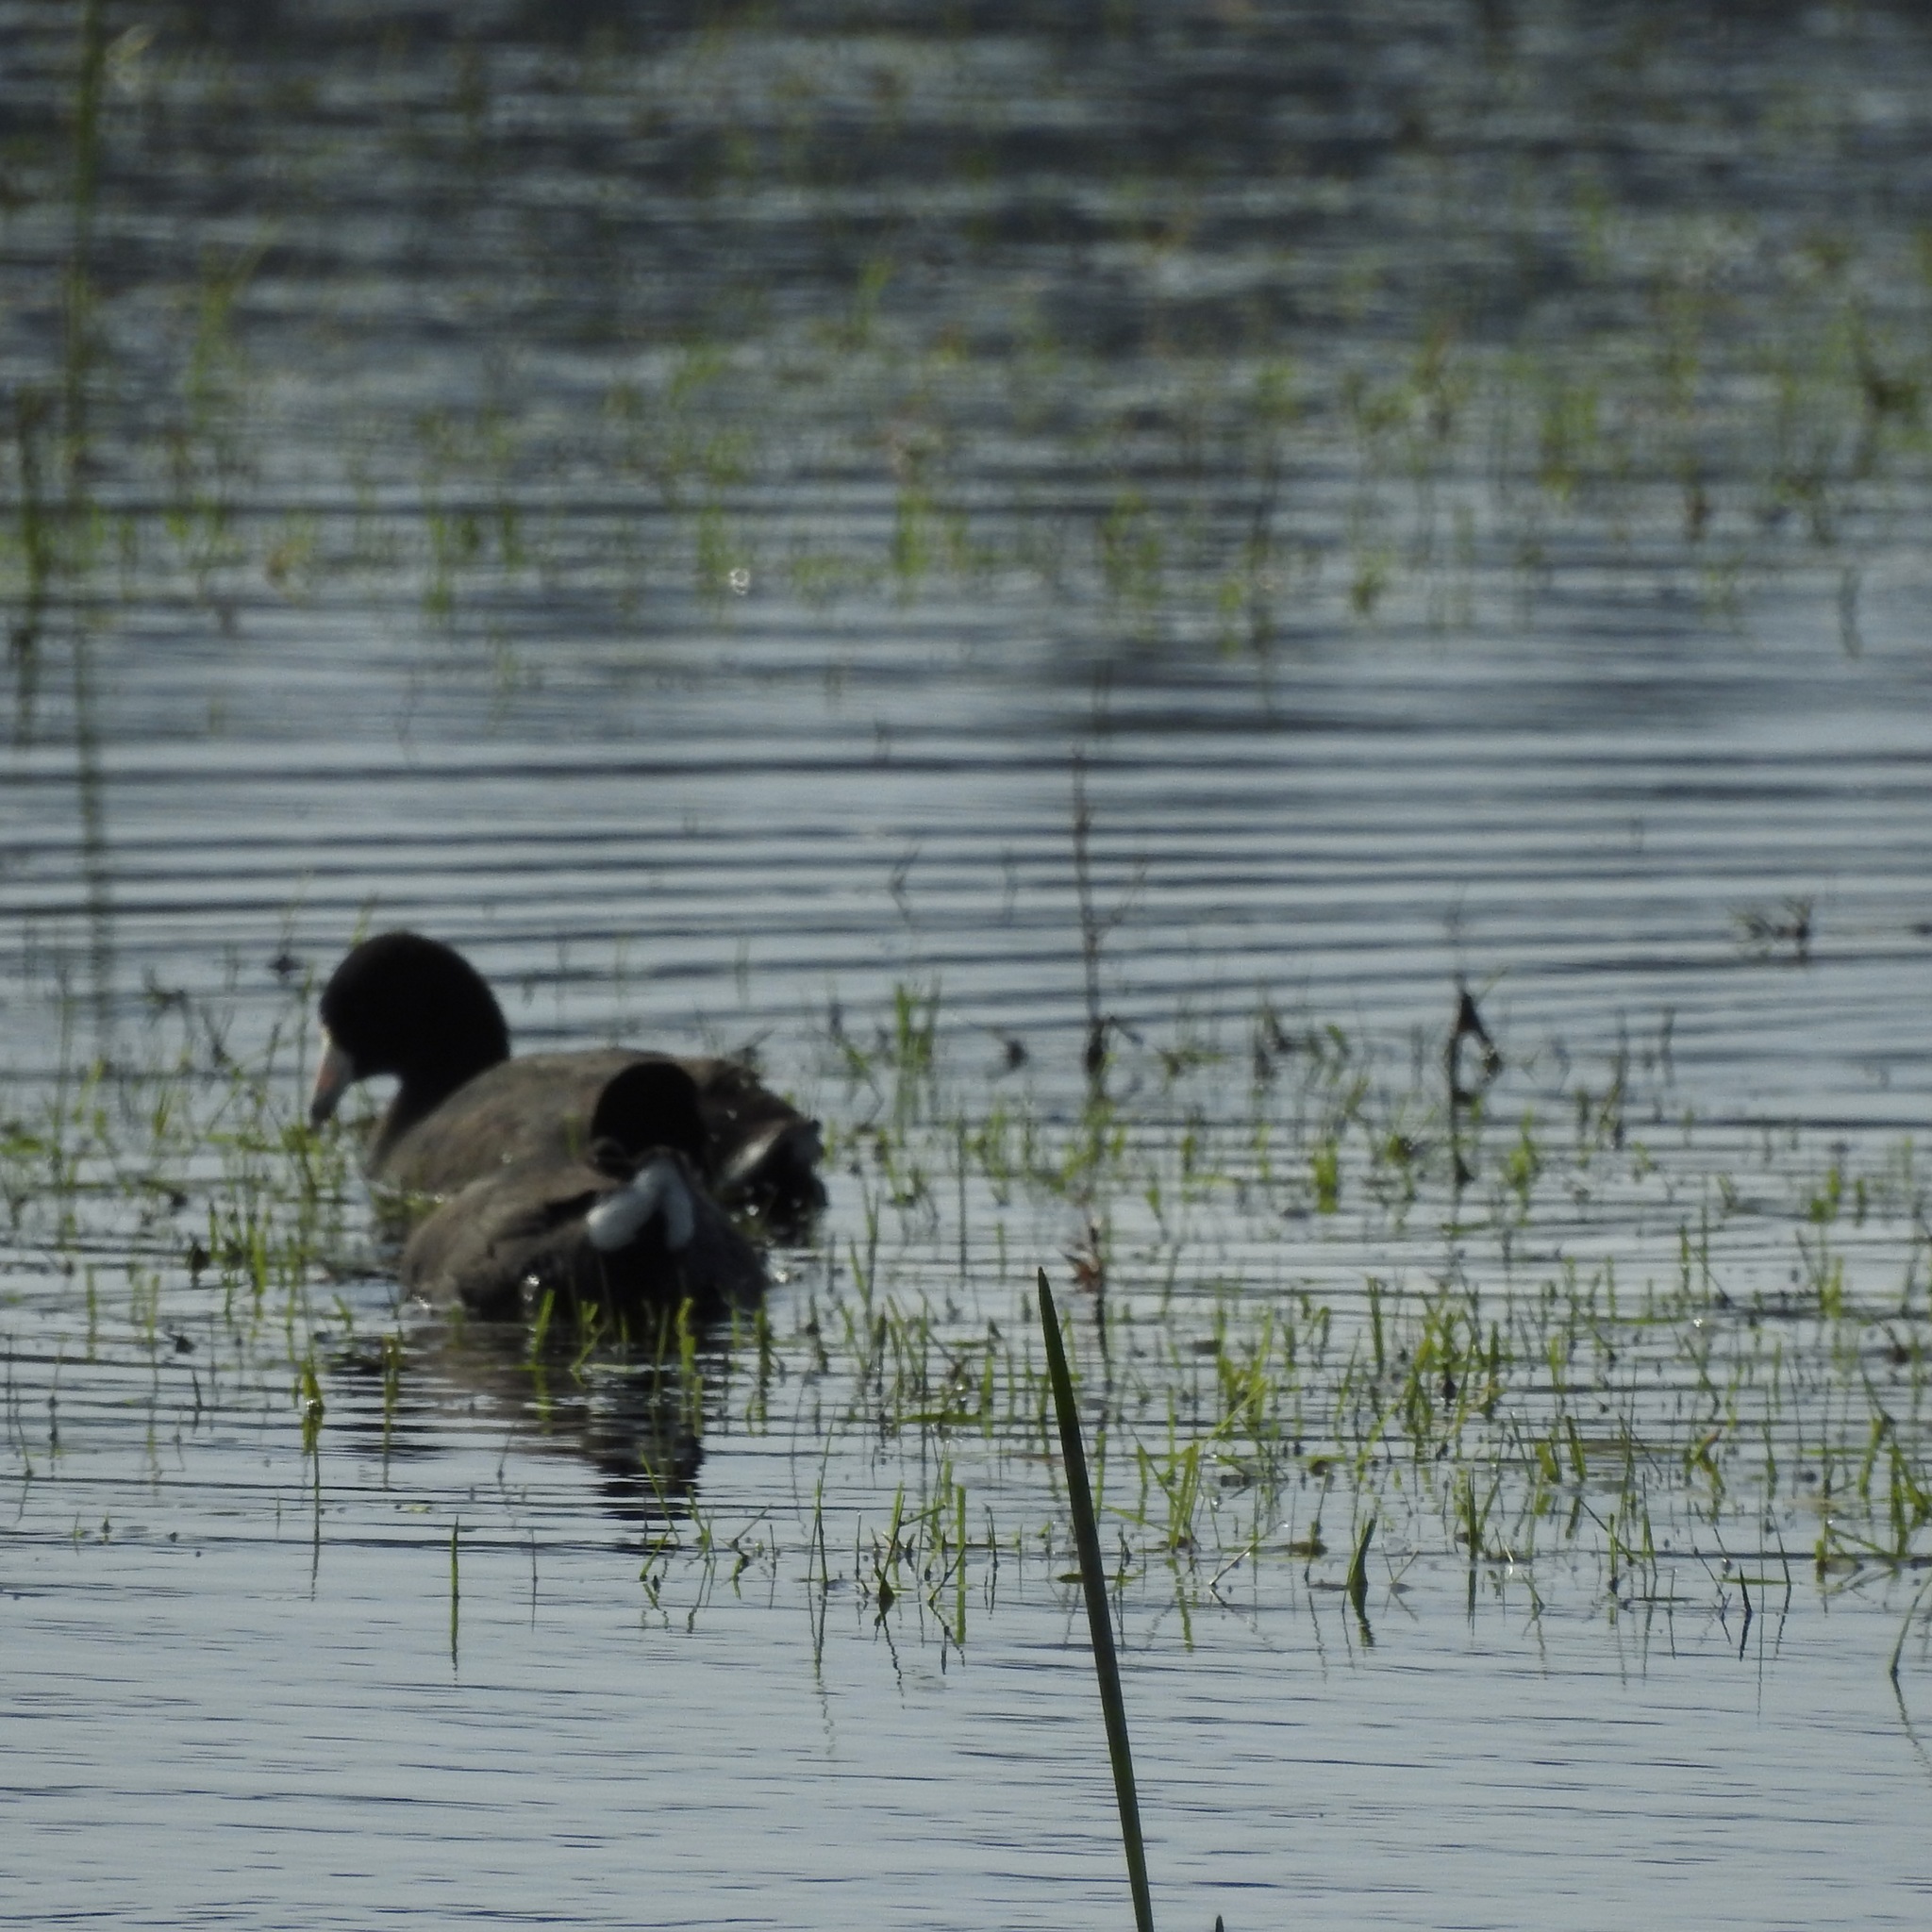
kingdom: Animalia
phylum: Chordata
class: Aves
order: Gruiformes
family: Rallidae
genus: Fulica
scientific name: Fulica americana
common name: American coot
